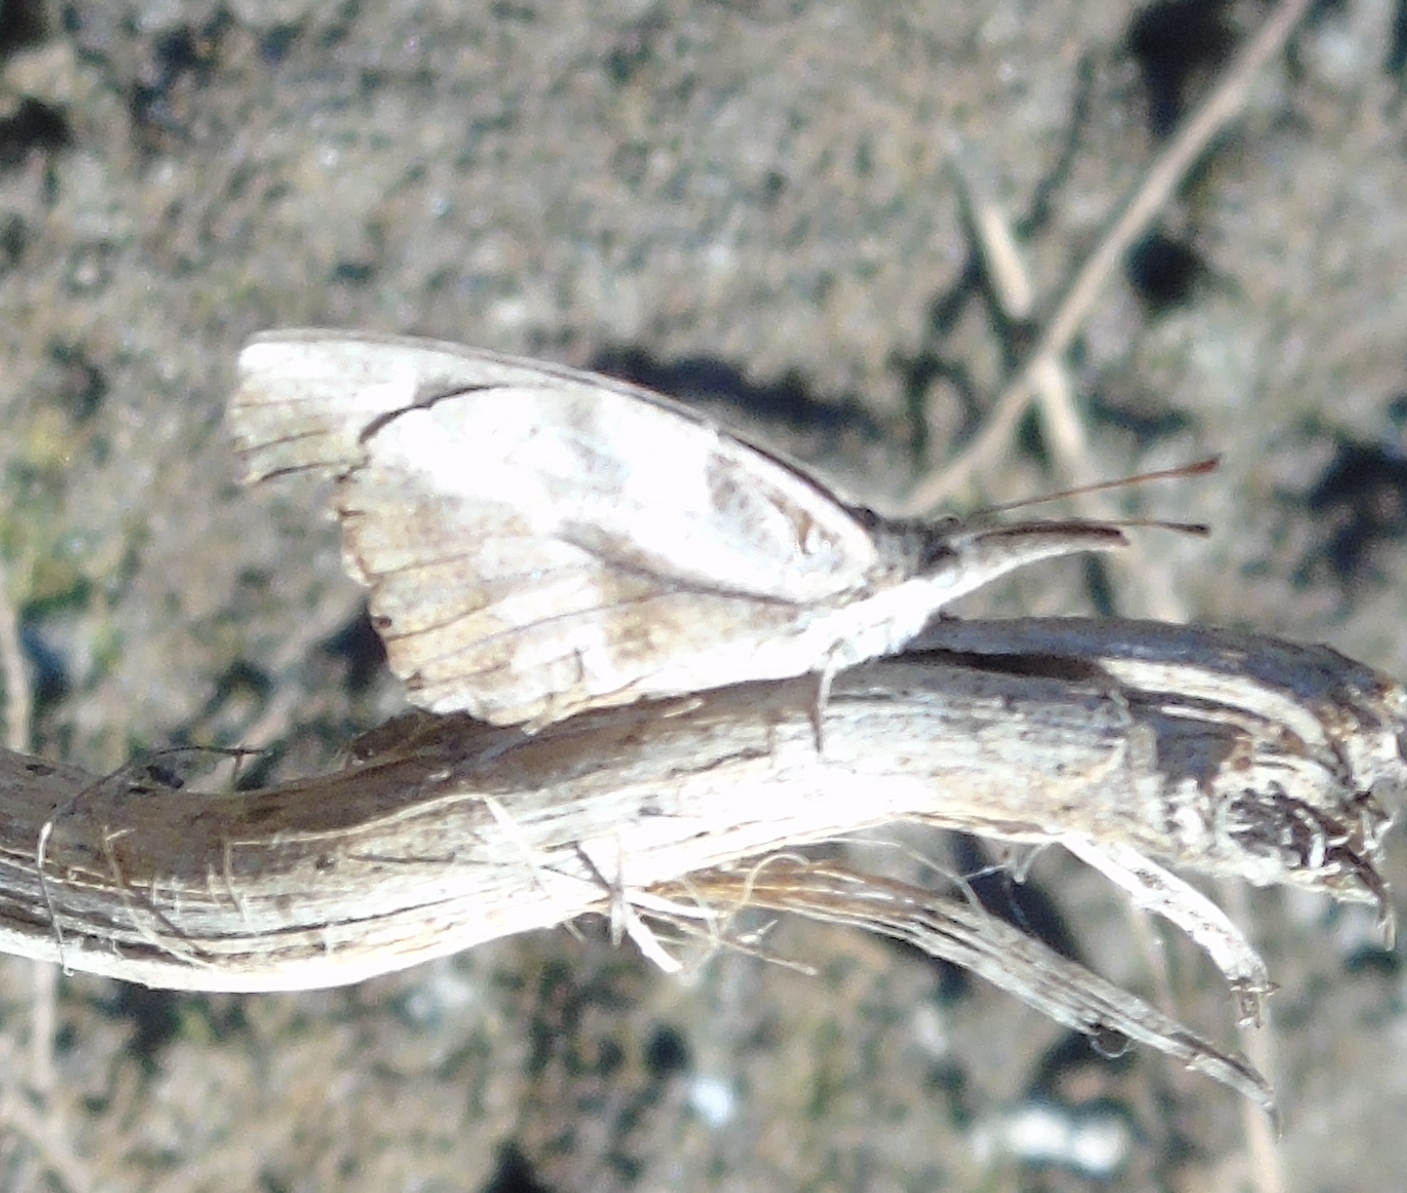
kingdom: Animalia
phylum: Arthropoda
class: Insecta
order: Lepidoptera
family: Nymphalidae
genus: Libytheana
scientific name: Libytheana carinenta
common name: American snout
